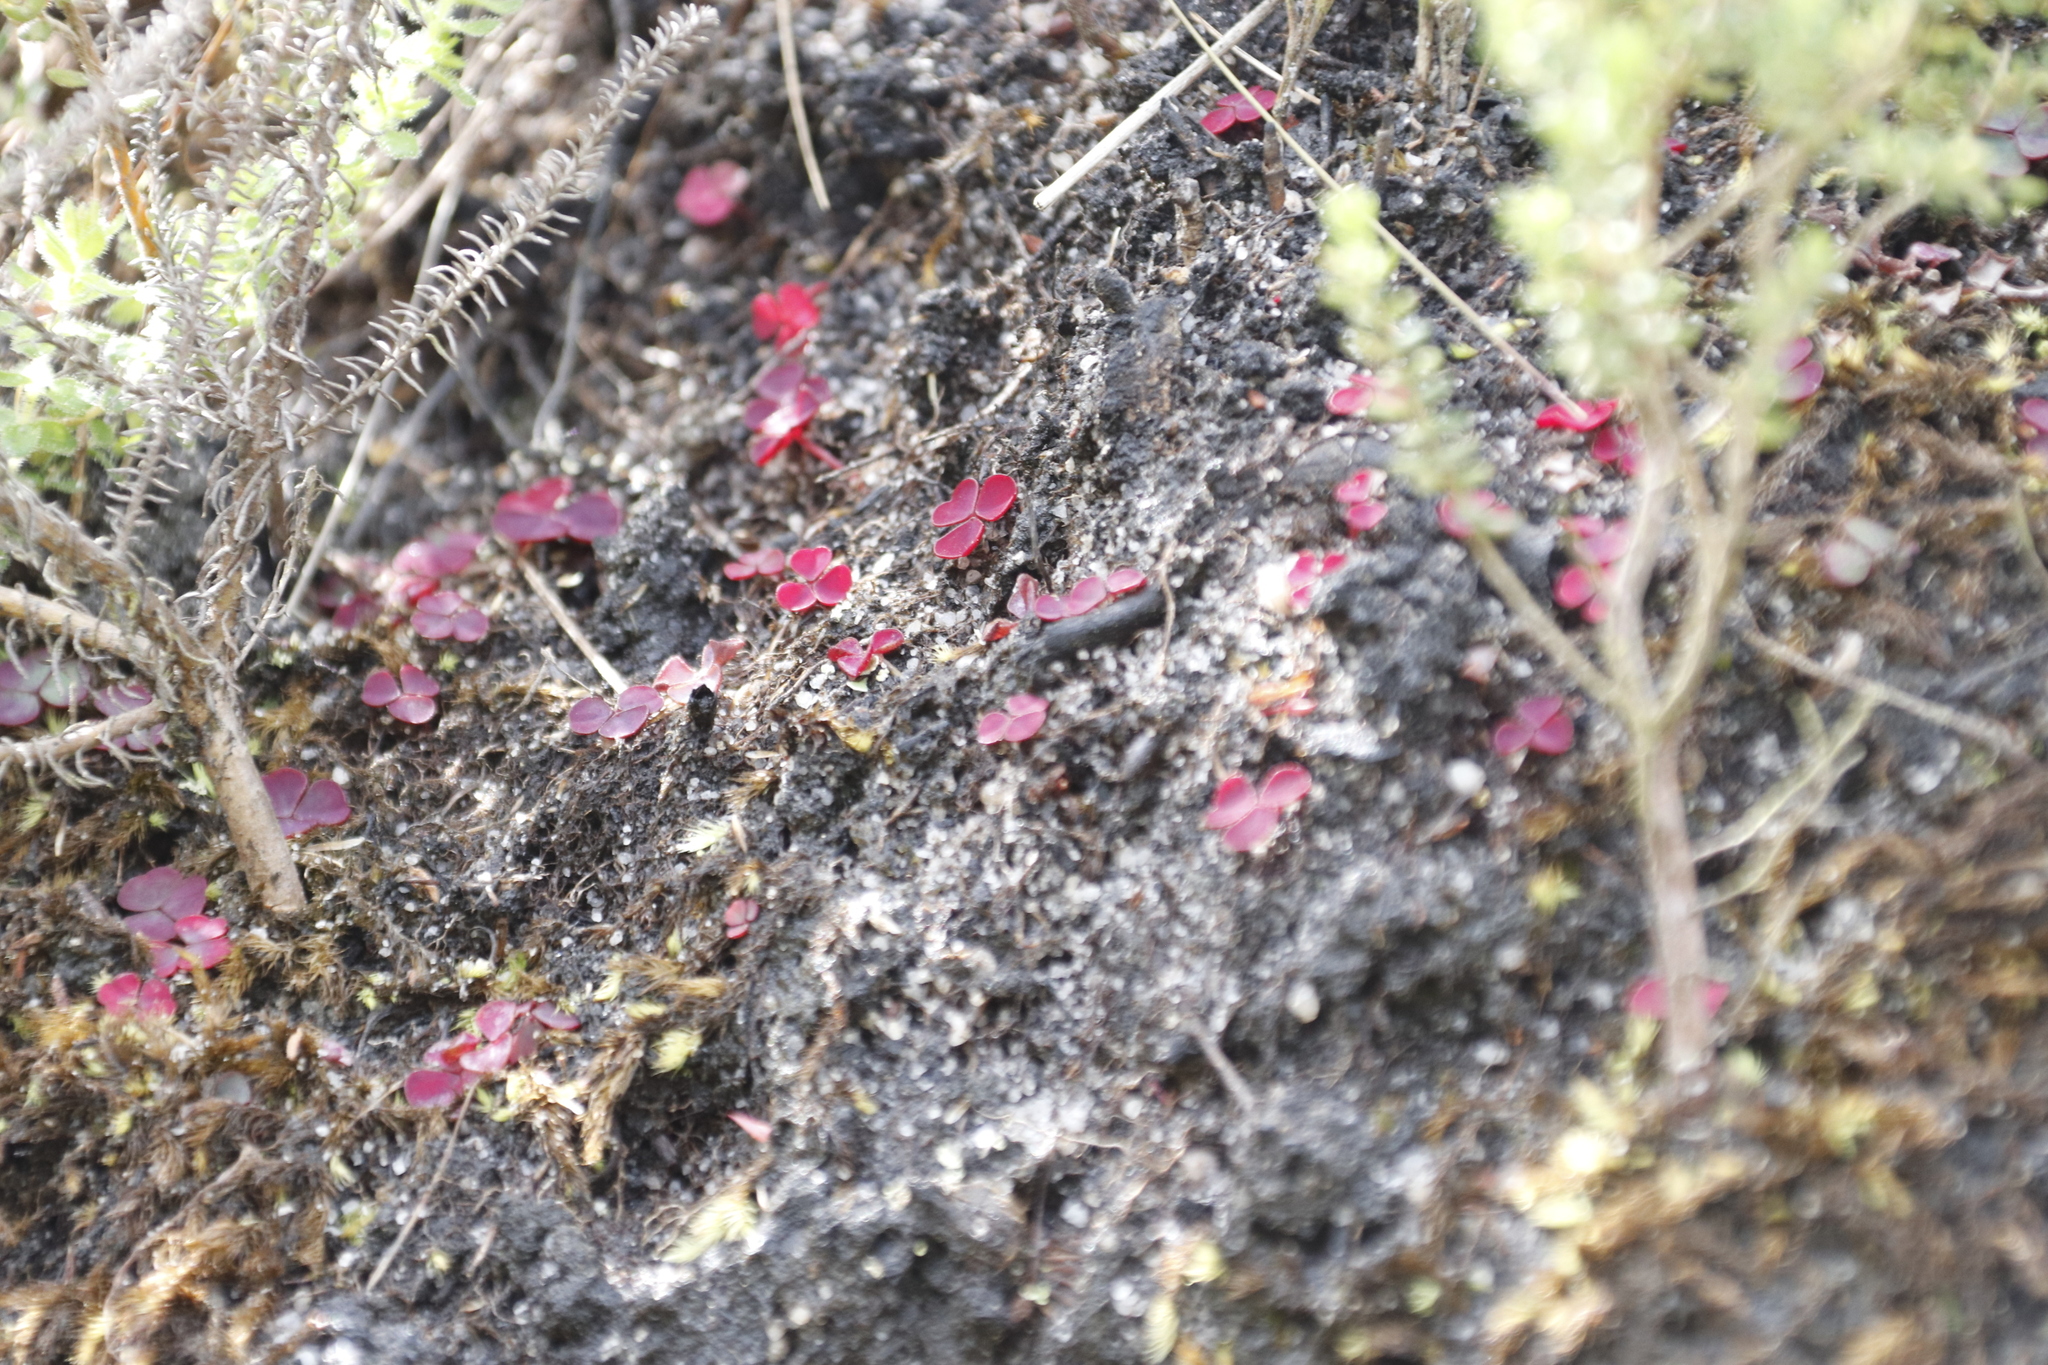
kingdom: Plantae
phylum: Tracheophyta
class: Magnoliopsida
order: Oxalidales
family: Oxalidaceae
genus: Oxalis
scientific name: Oxalis commutata
